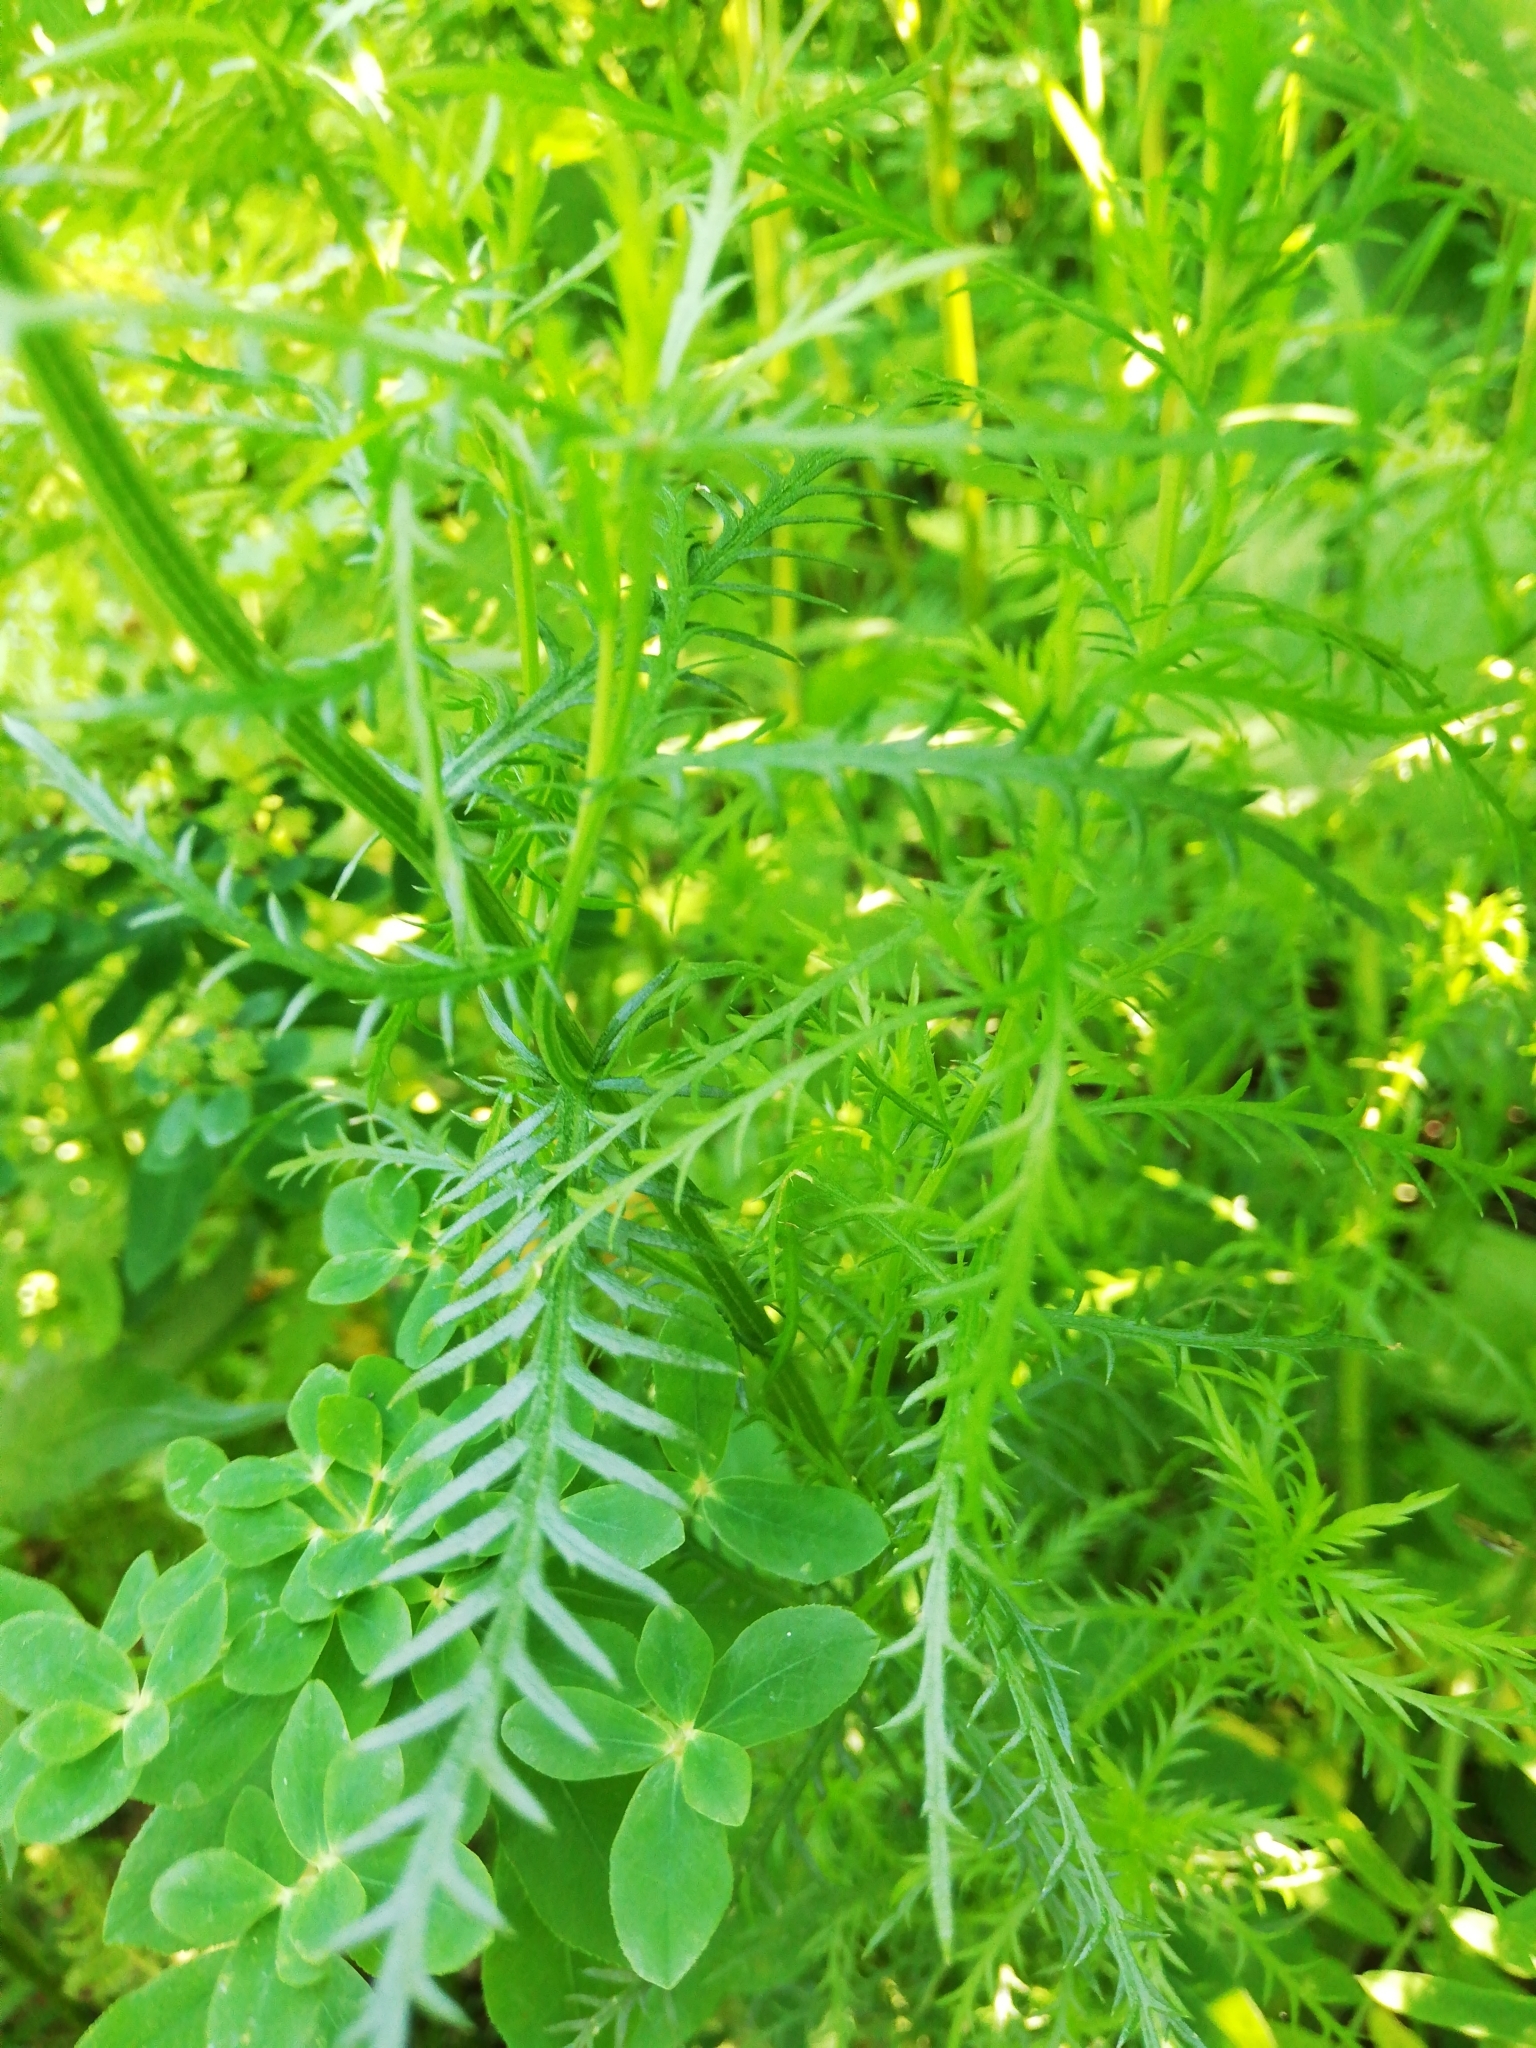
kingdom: Plantae
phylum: Tracheophyta
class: Magnoliopsida
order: Asterales
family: Asteraceae
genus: Achillea
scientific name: Achillea impatiens
